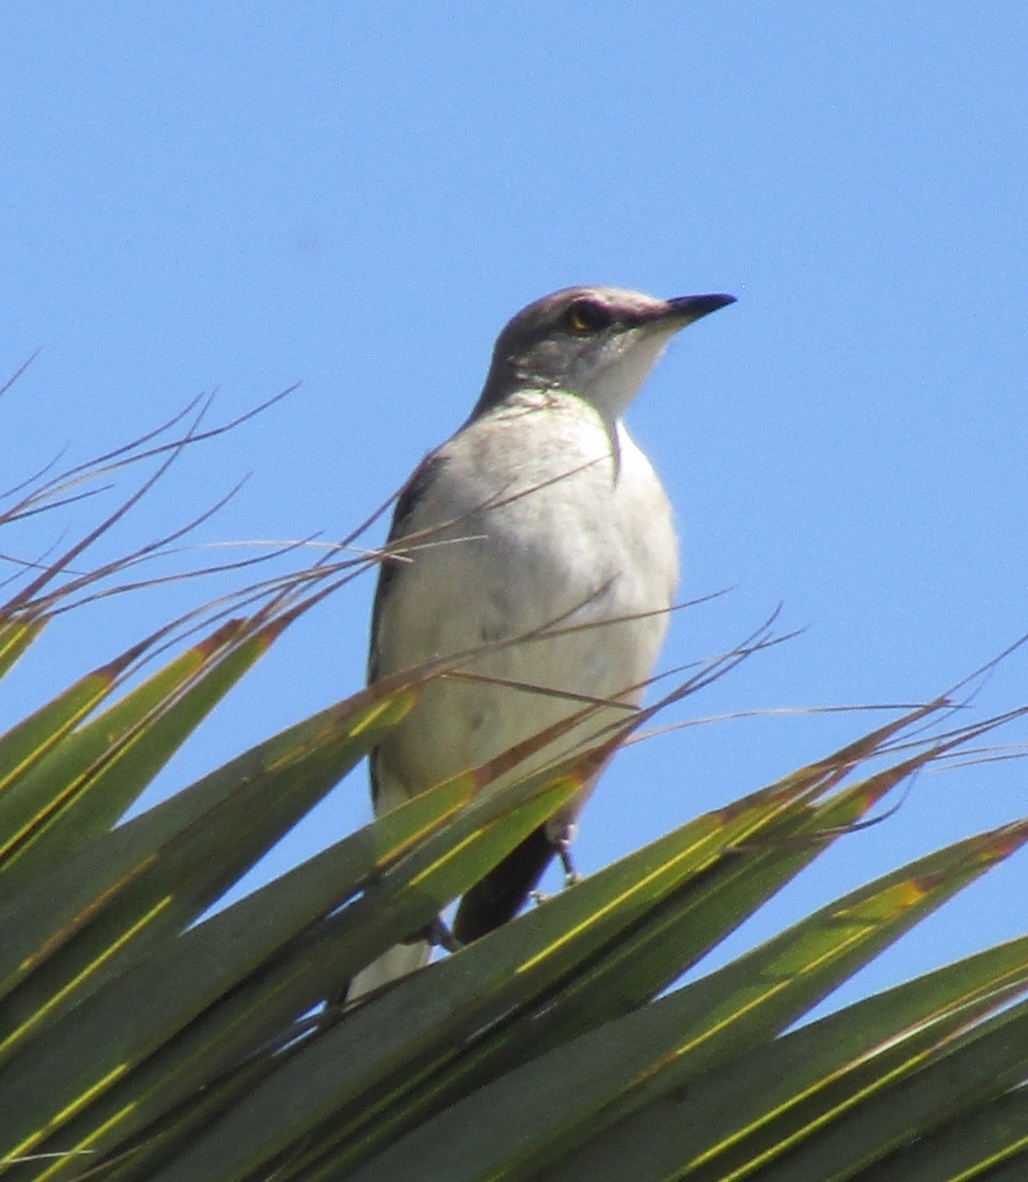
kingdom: Animalia
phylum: Chordata
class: Aves
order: Passeriformes
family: Mimidae
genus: Mimus
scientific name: Mimus polyglottos
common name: Northern mockingbird
